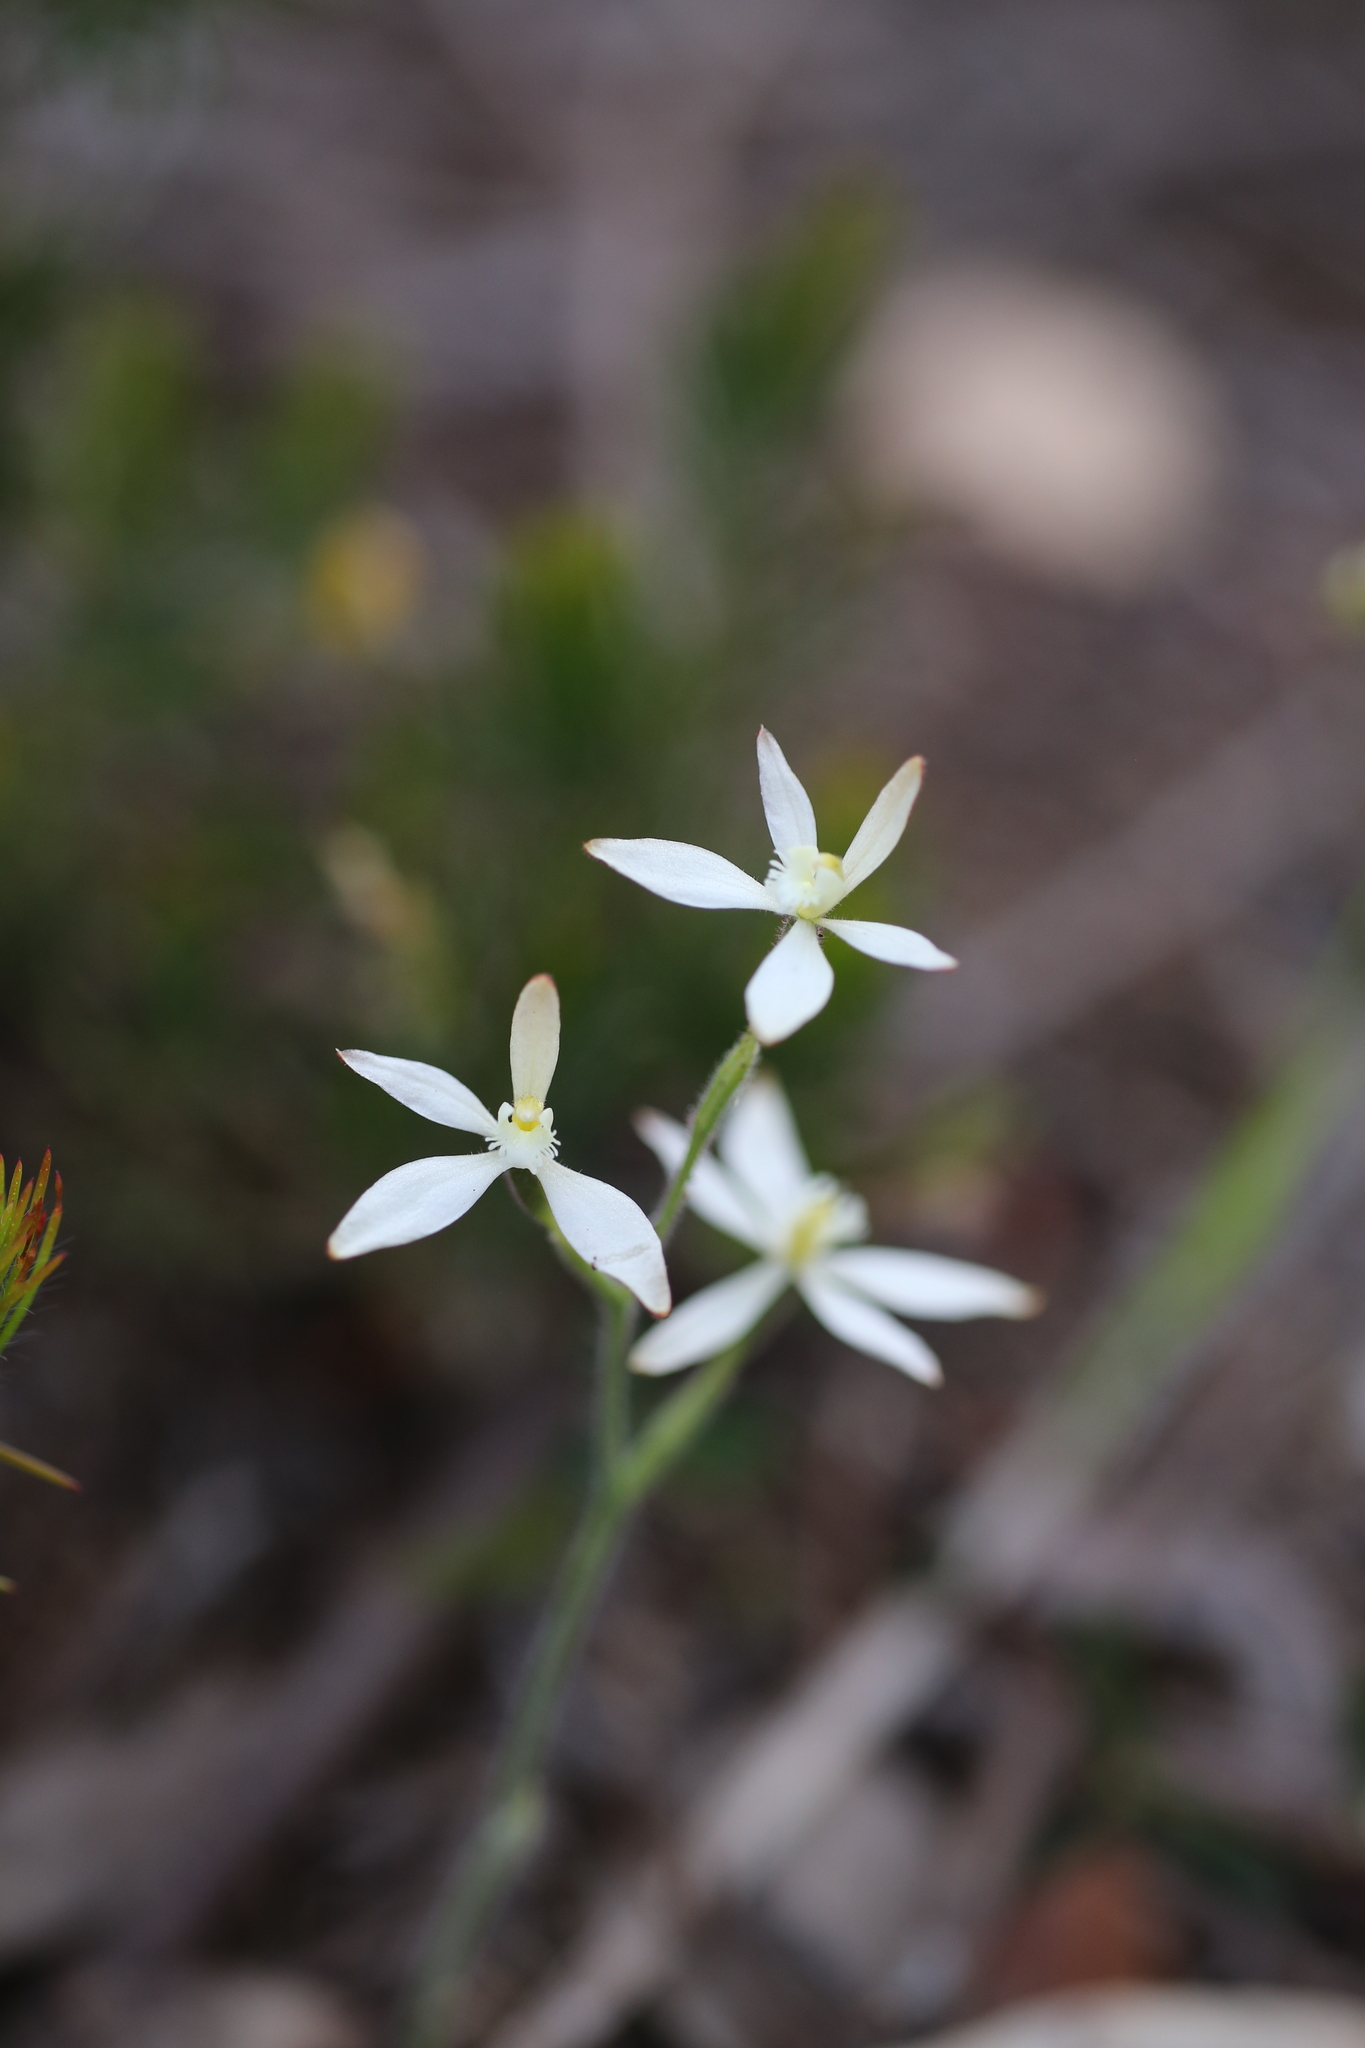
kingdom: Plantae
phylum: Tracheophyta
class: Liliopsida
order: Asparagales
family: Orchidaceae
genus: Caladenia
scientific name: Caladenia marginata
